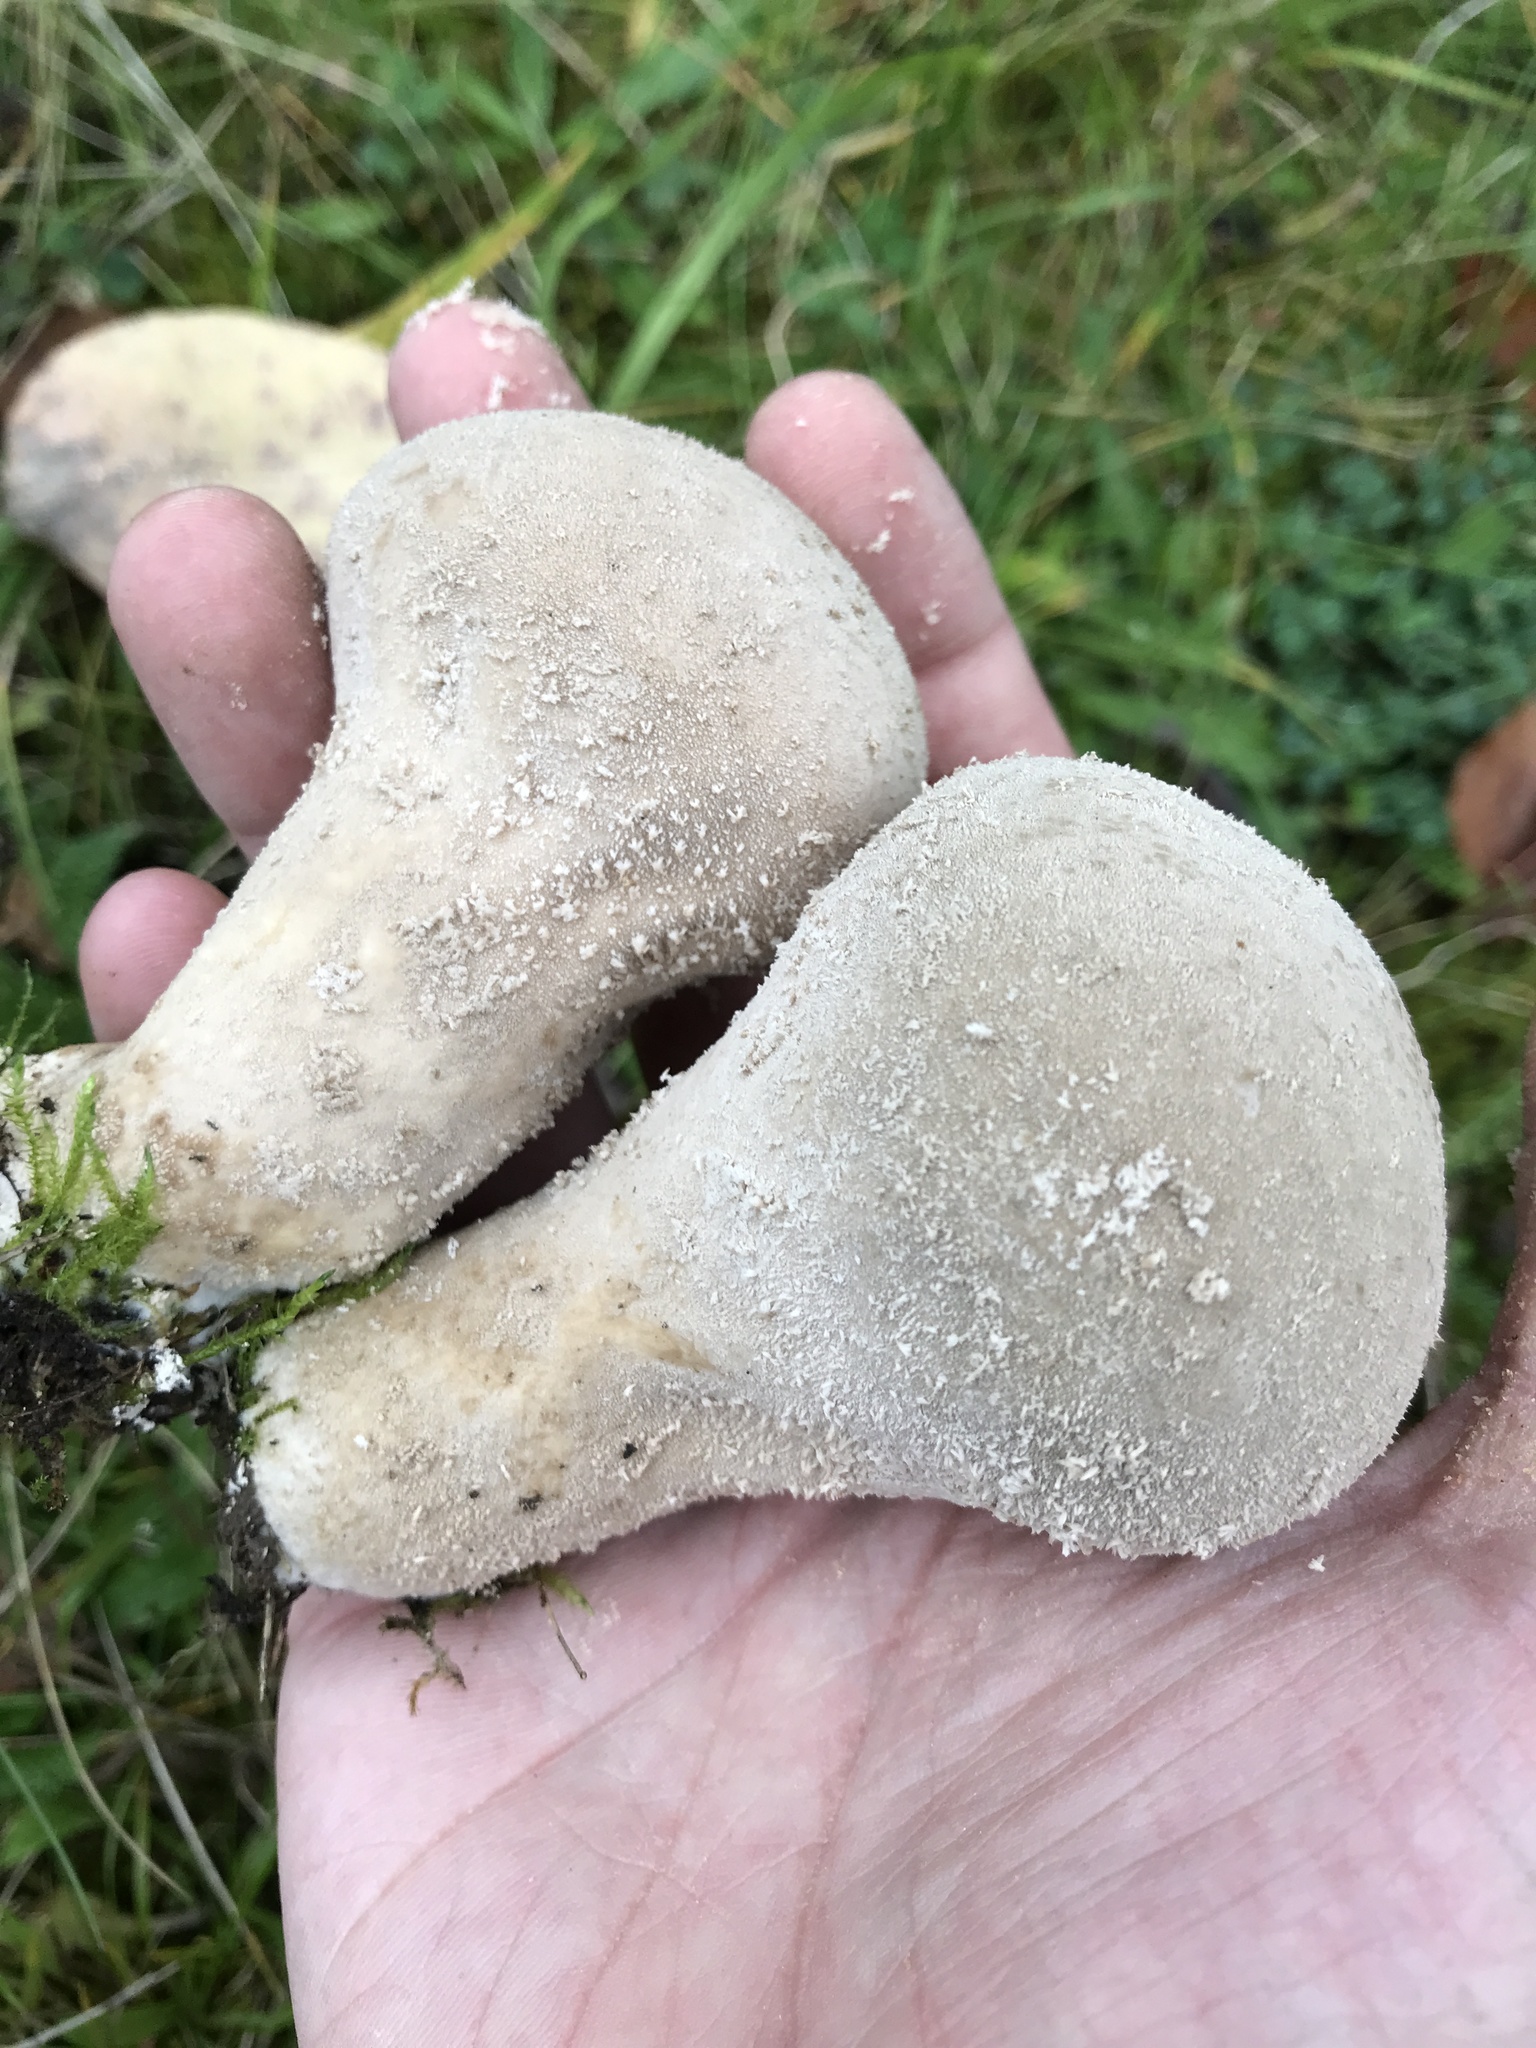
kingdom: Fungi
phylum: Basidiomycota
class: Agaricomycetes
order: Agaricales
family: Lycoperdaceae
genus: Lycoperdon
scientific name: Lycoperdon excipuliforme
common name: Pestle puffball
